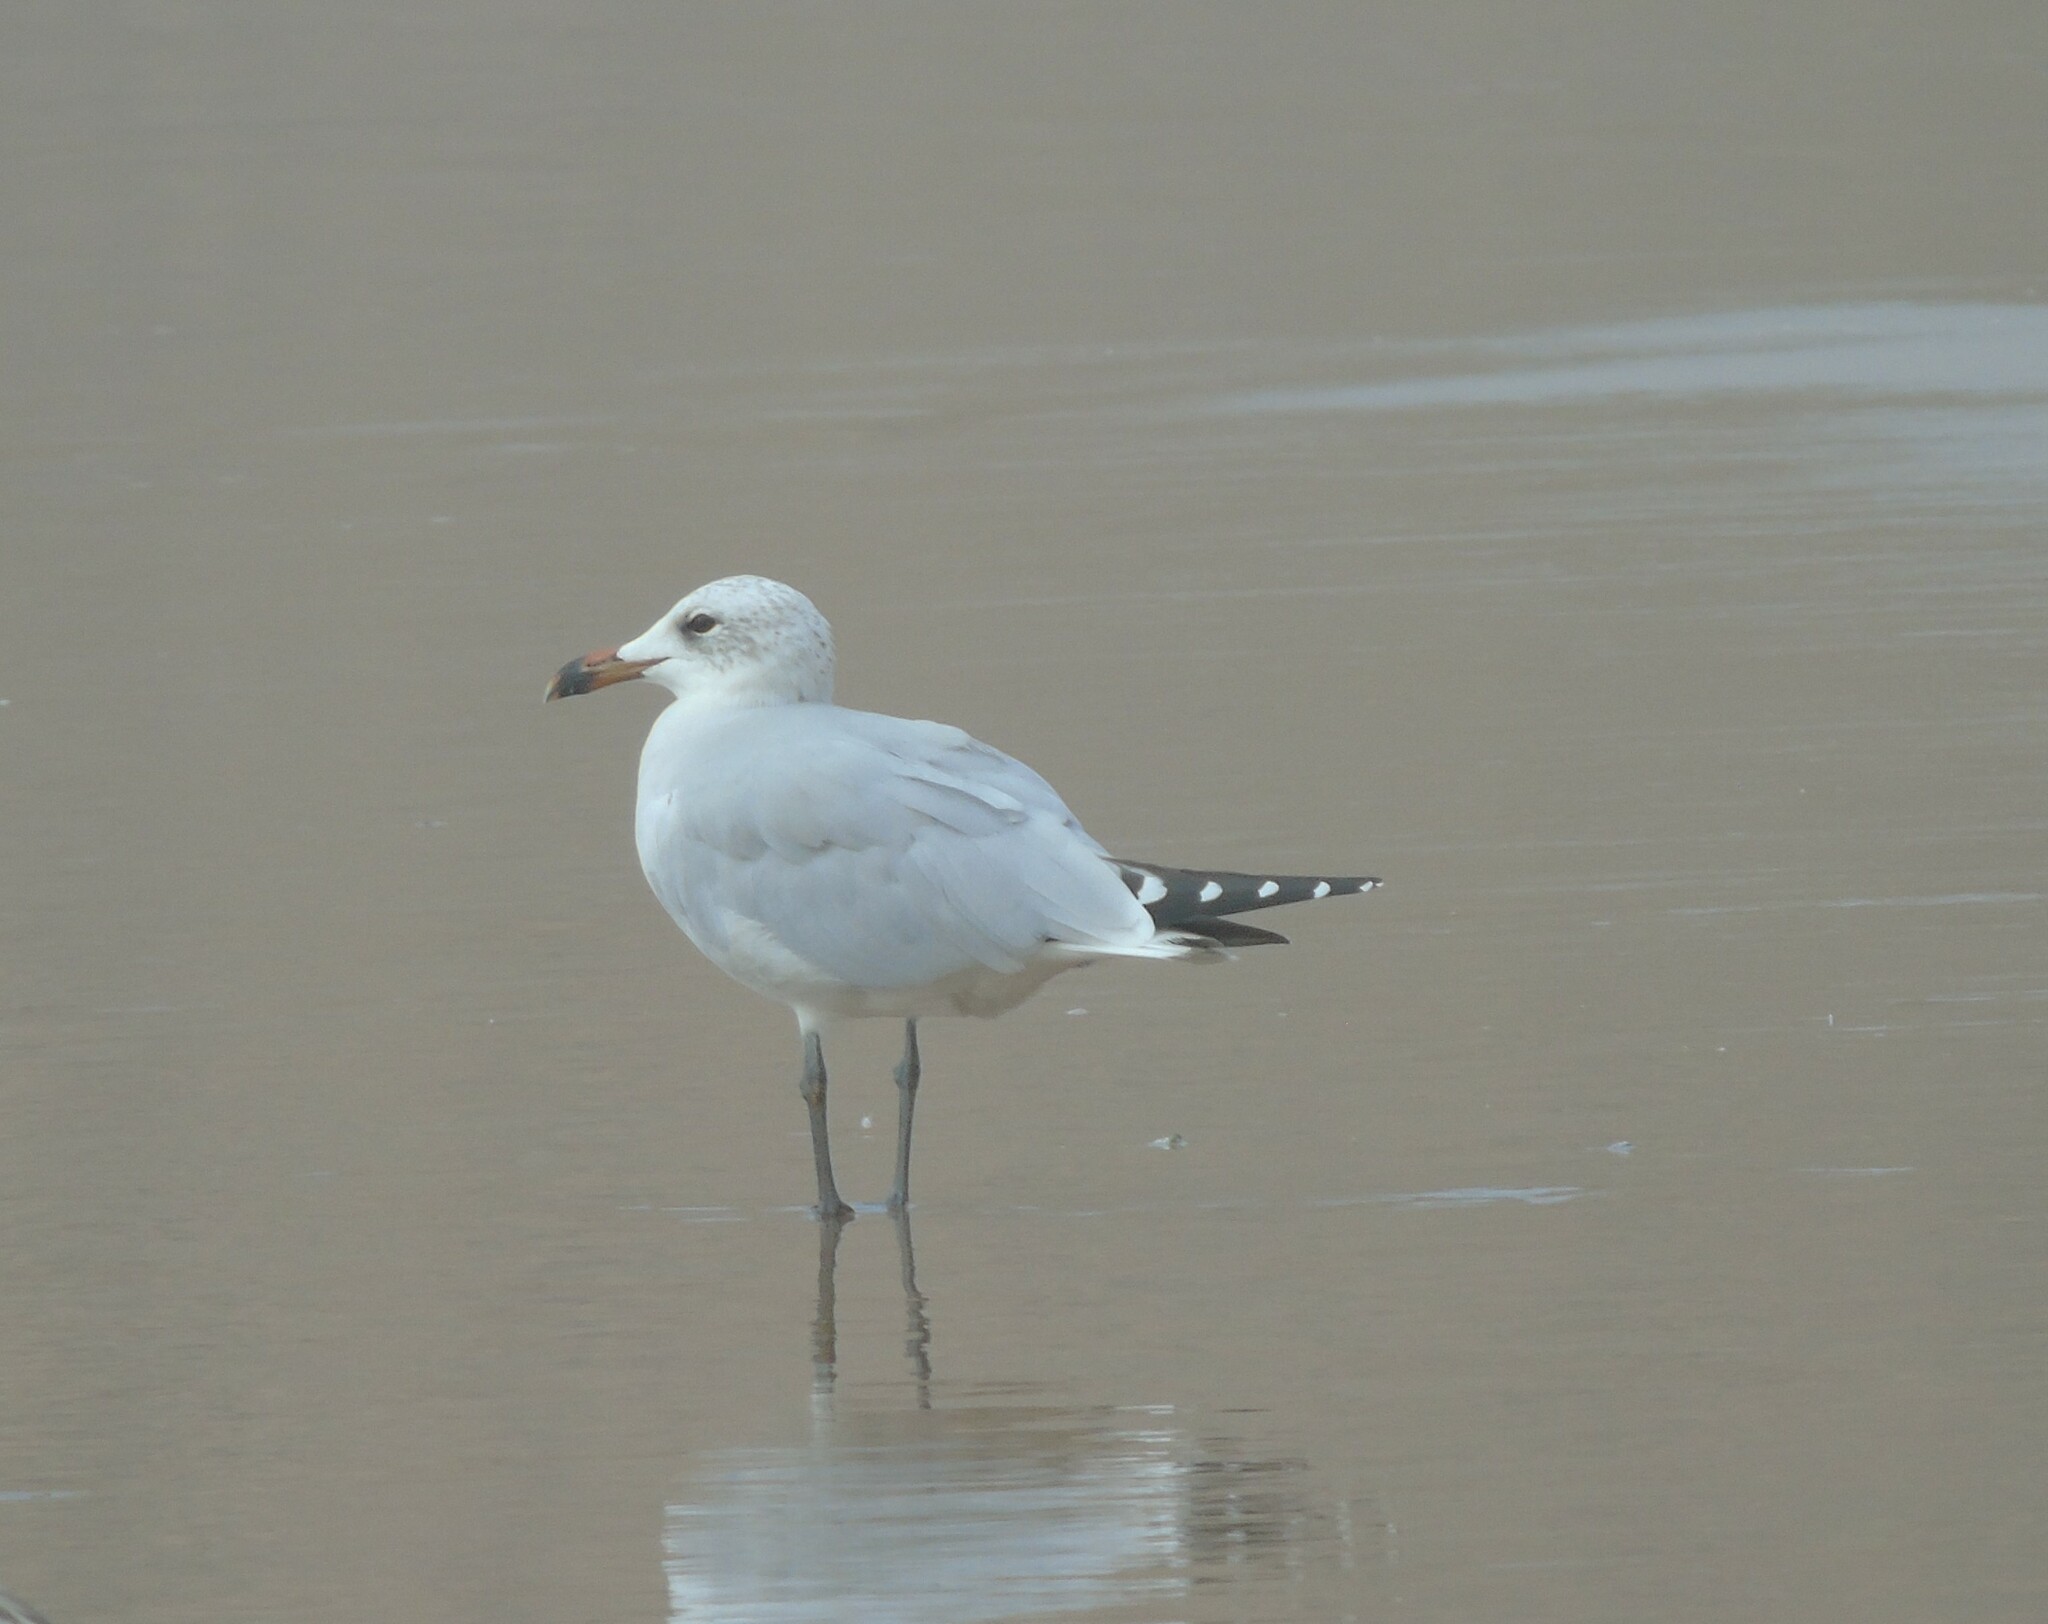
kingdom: Animalia
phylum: Chordata
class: Aves
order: Charadriiformes
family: Laridae
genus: Ichthyaetus
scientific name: Ichthyaetus audouinii
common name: Audouin's gull
